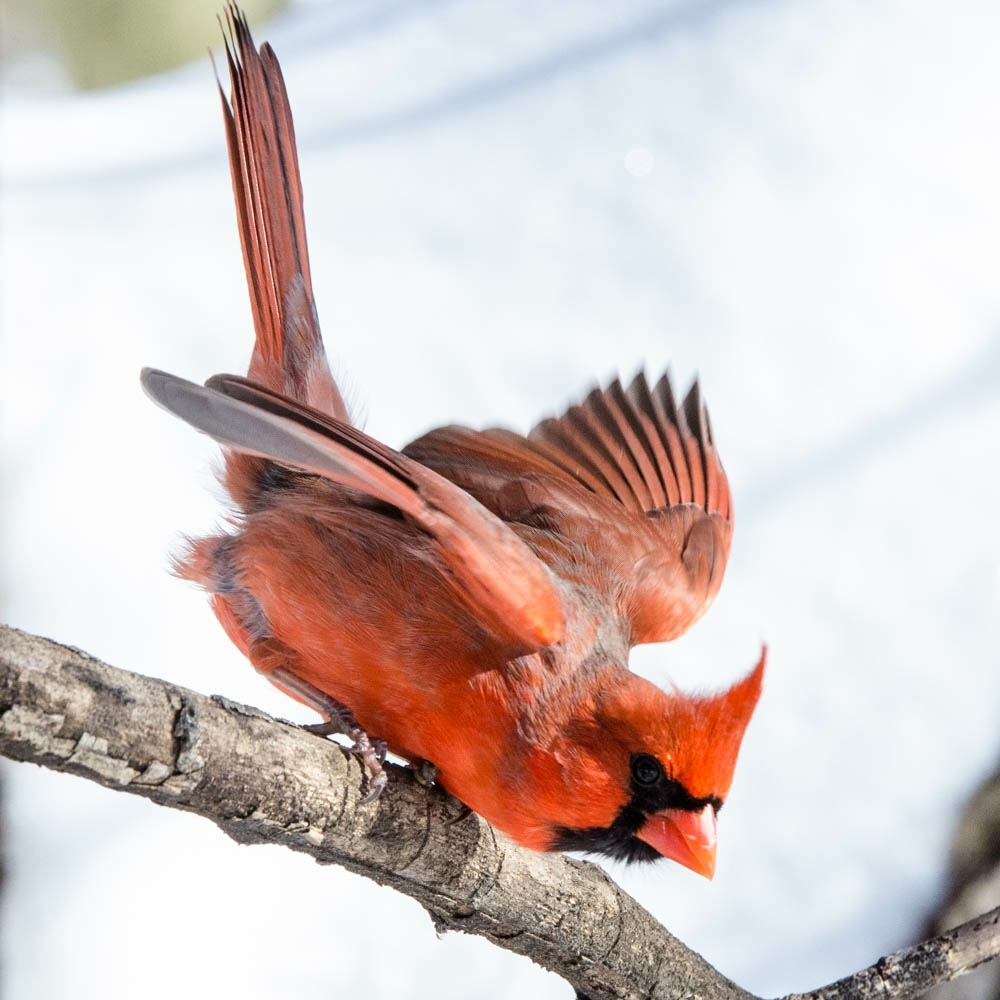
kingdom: Animalia
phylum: Chordata
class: Aves
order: Passeriformes
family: Cardinalidae
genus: Cardinalis
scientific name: Cardinalis cardinalis
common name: Northern cardinal
